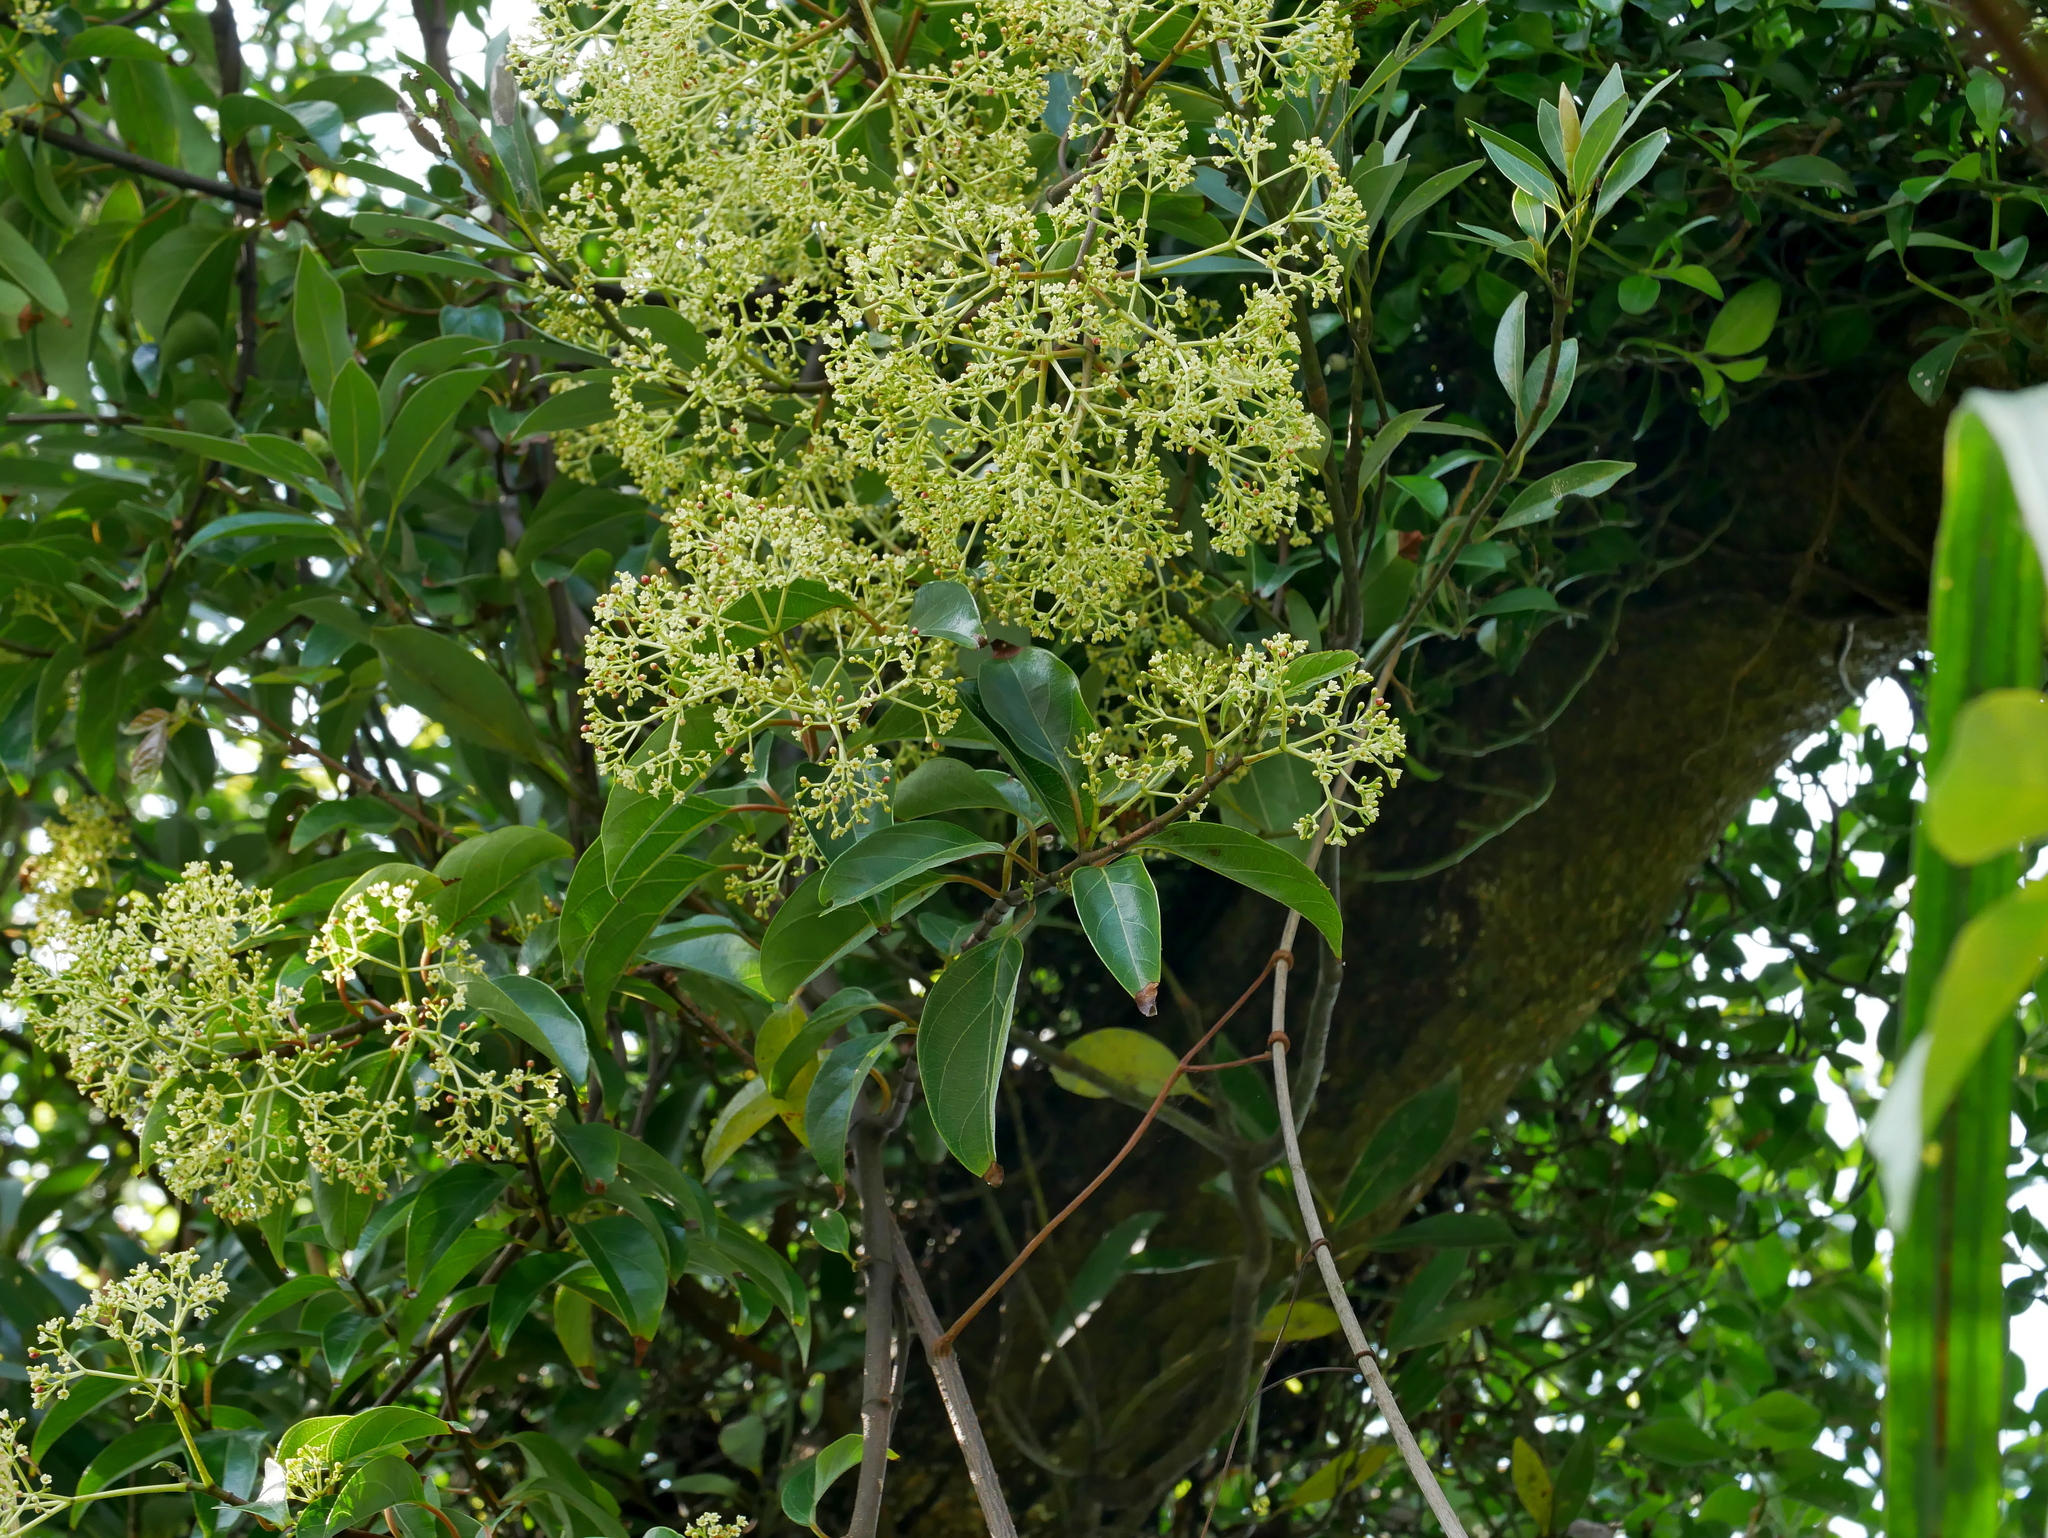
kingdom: Plantae
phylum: Tracheophyta
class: Magnoliopsida
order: Gentianales
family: Apocynaceae
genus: Urceola
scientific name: Urceola micrantha
